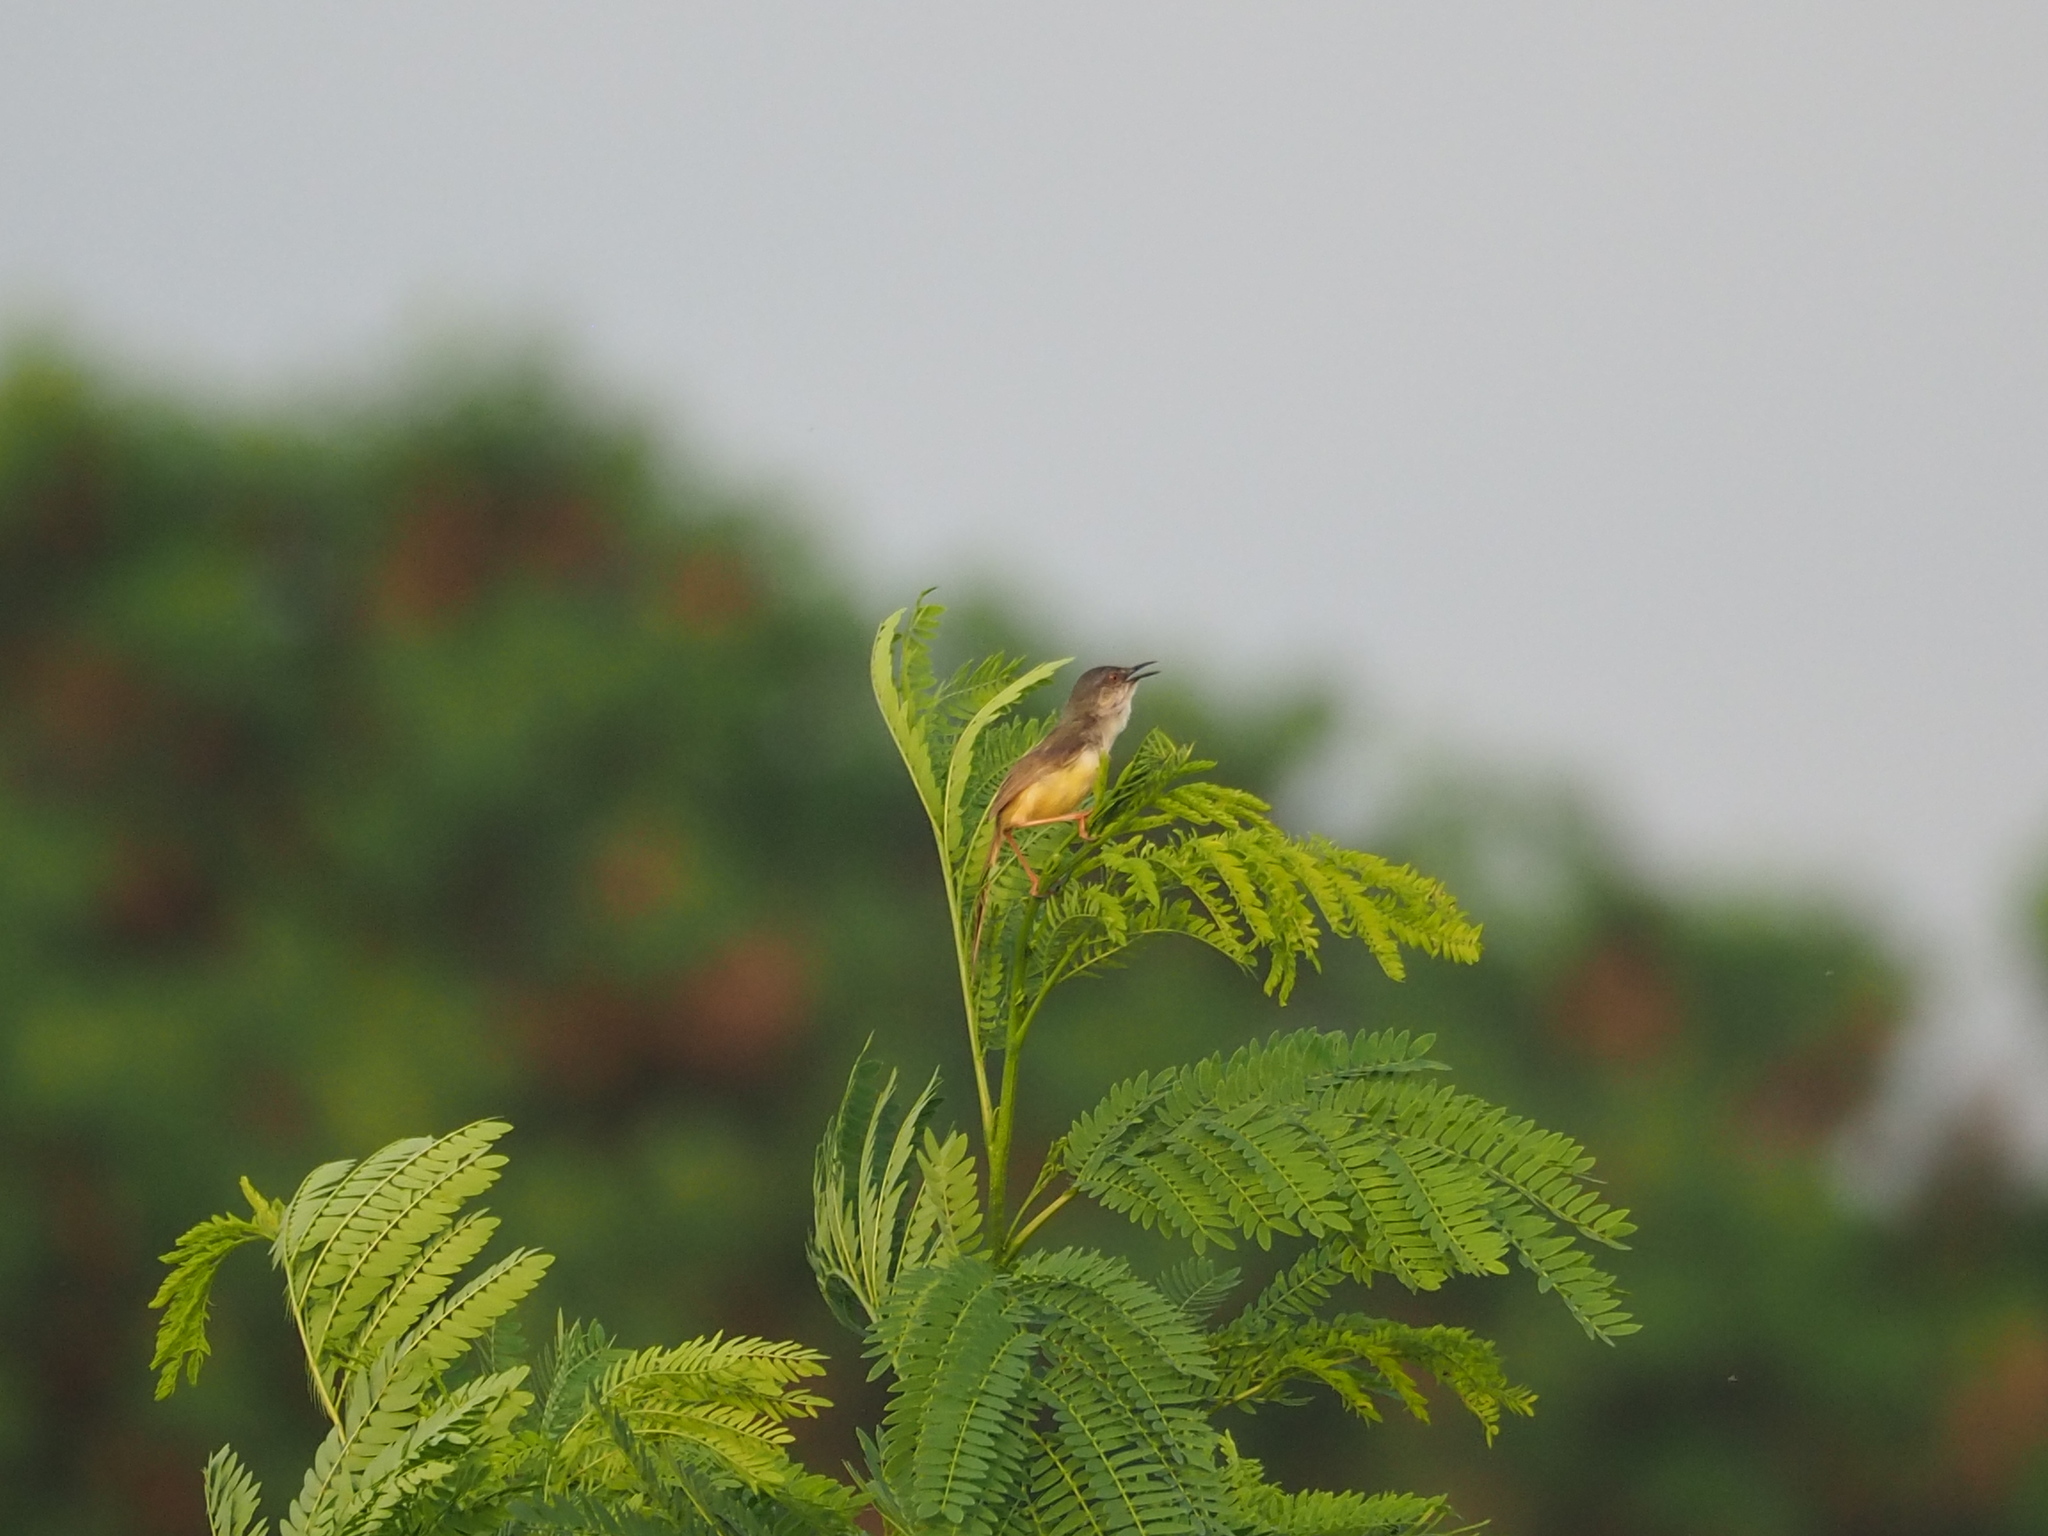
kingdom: Animalia
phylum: Chordata
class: Aves
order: Passeriformes
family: Cisticolidae
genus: Prinia
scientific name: Prinia flaviventris
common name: Yellow-bellied prinia
